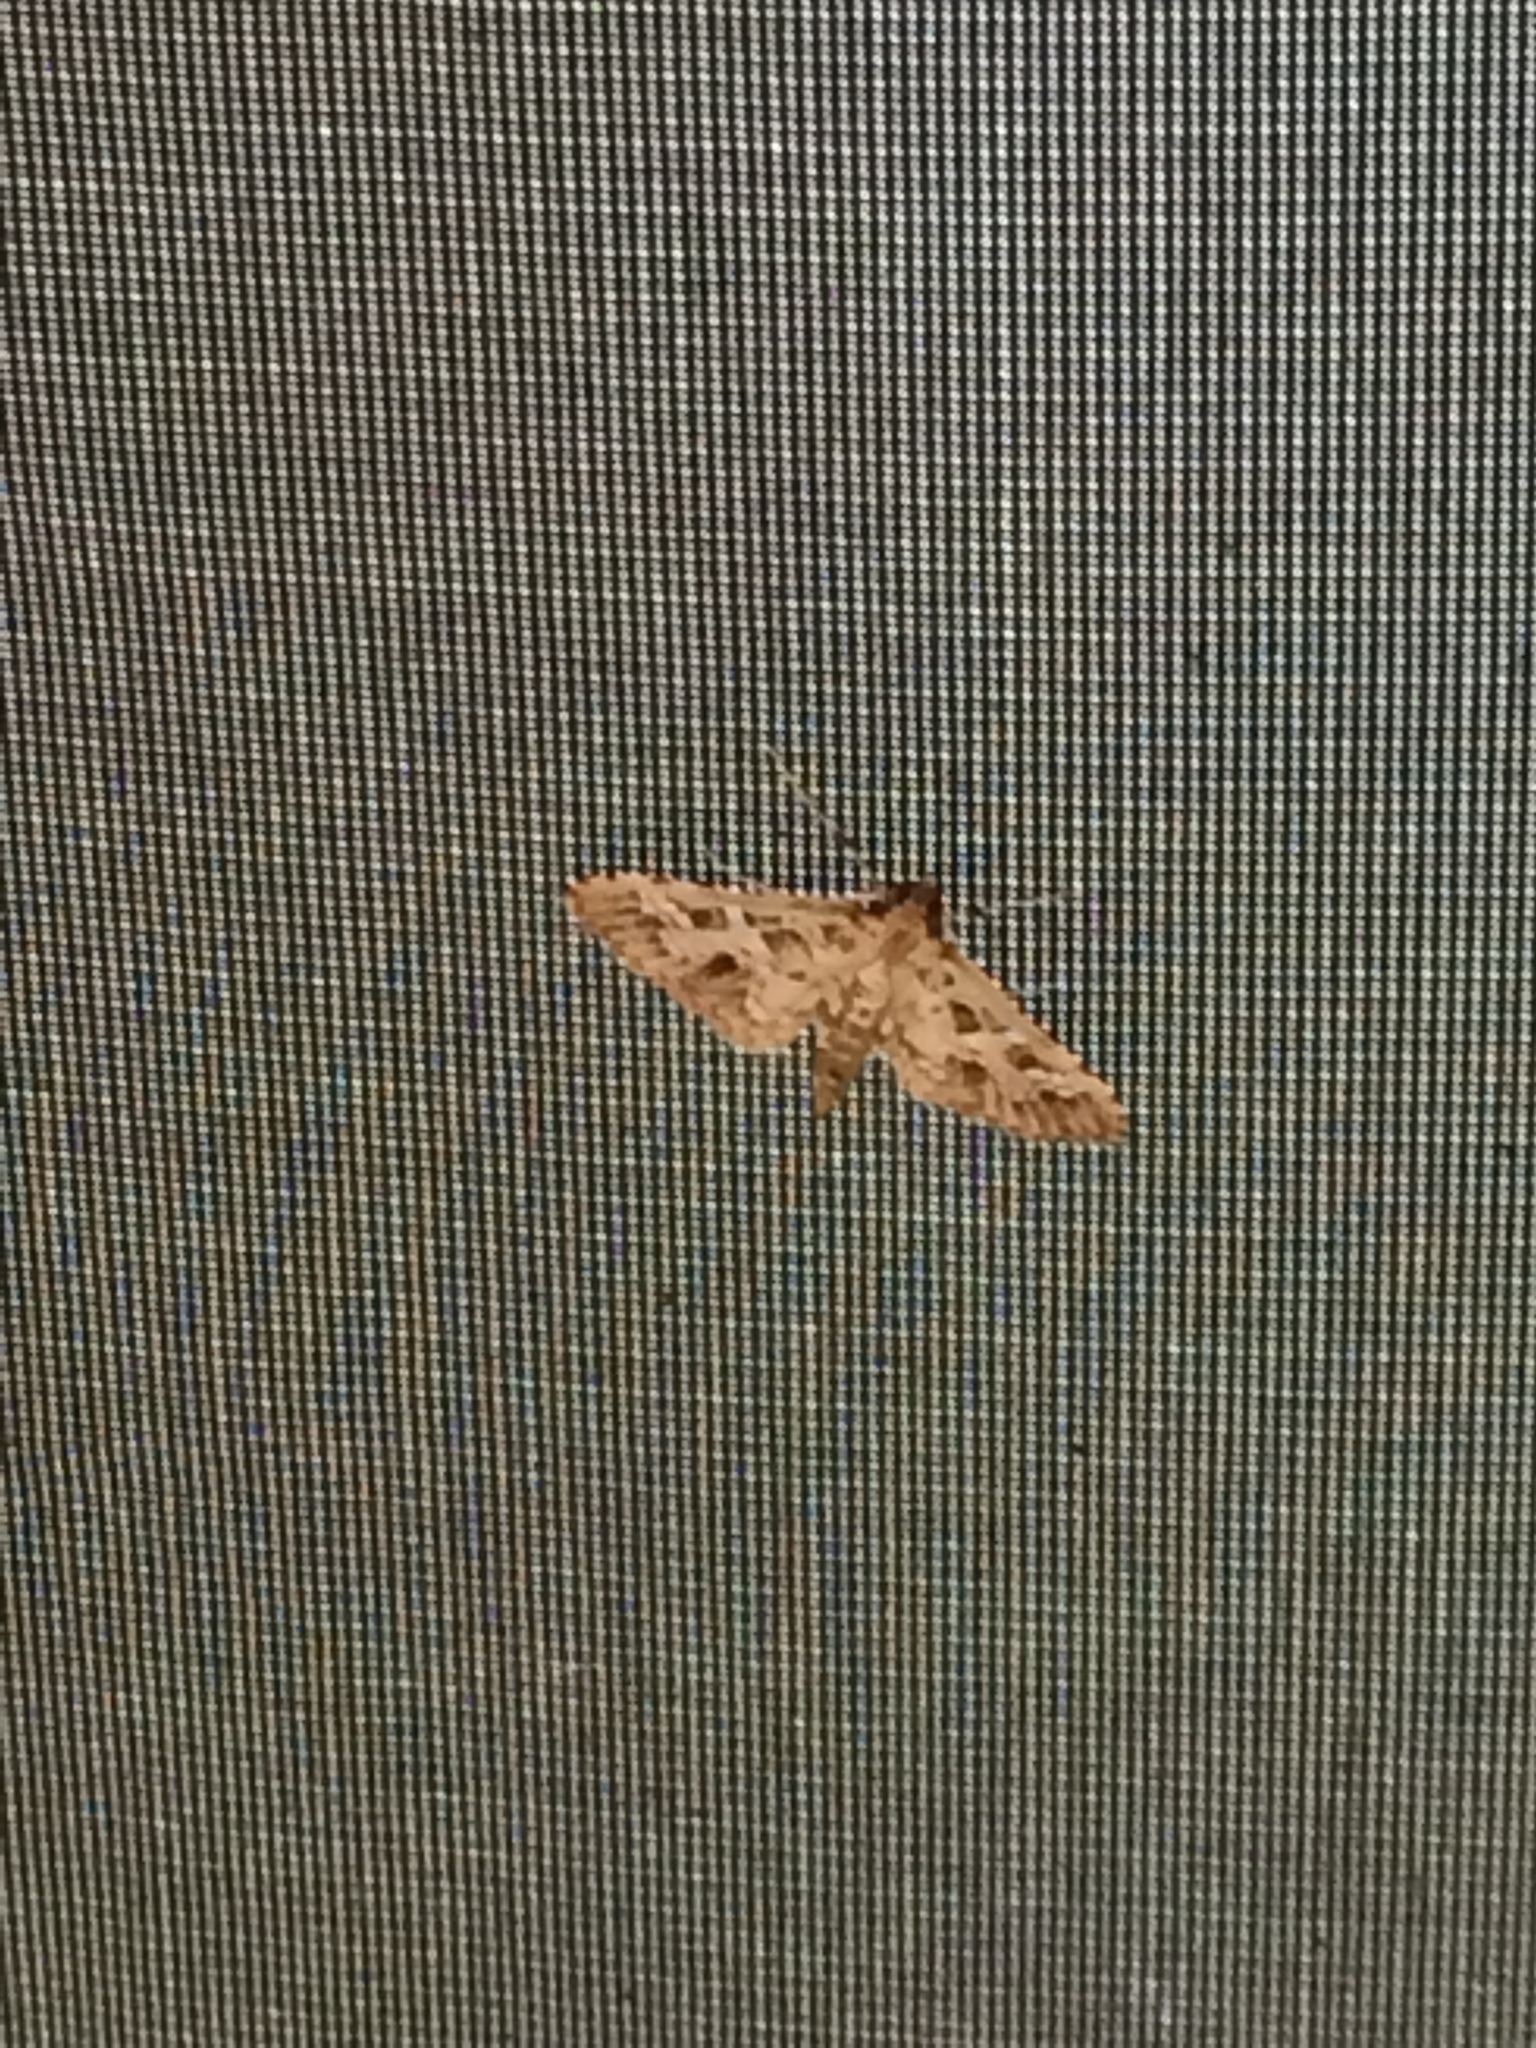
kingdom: Animalia
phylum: Arthropoda
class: Insecta
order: Lepidoptera
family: Crambidae
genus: Samea
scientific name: Samea multiplicalis
